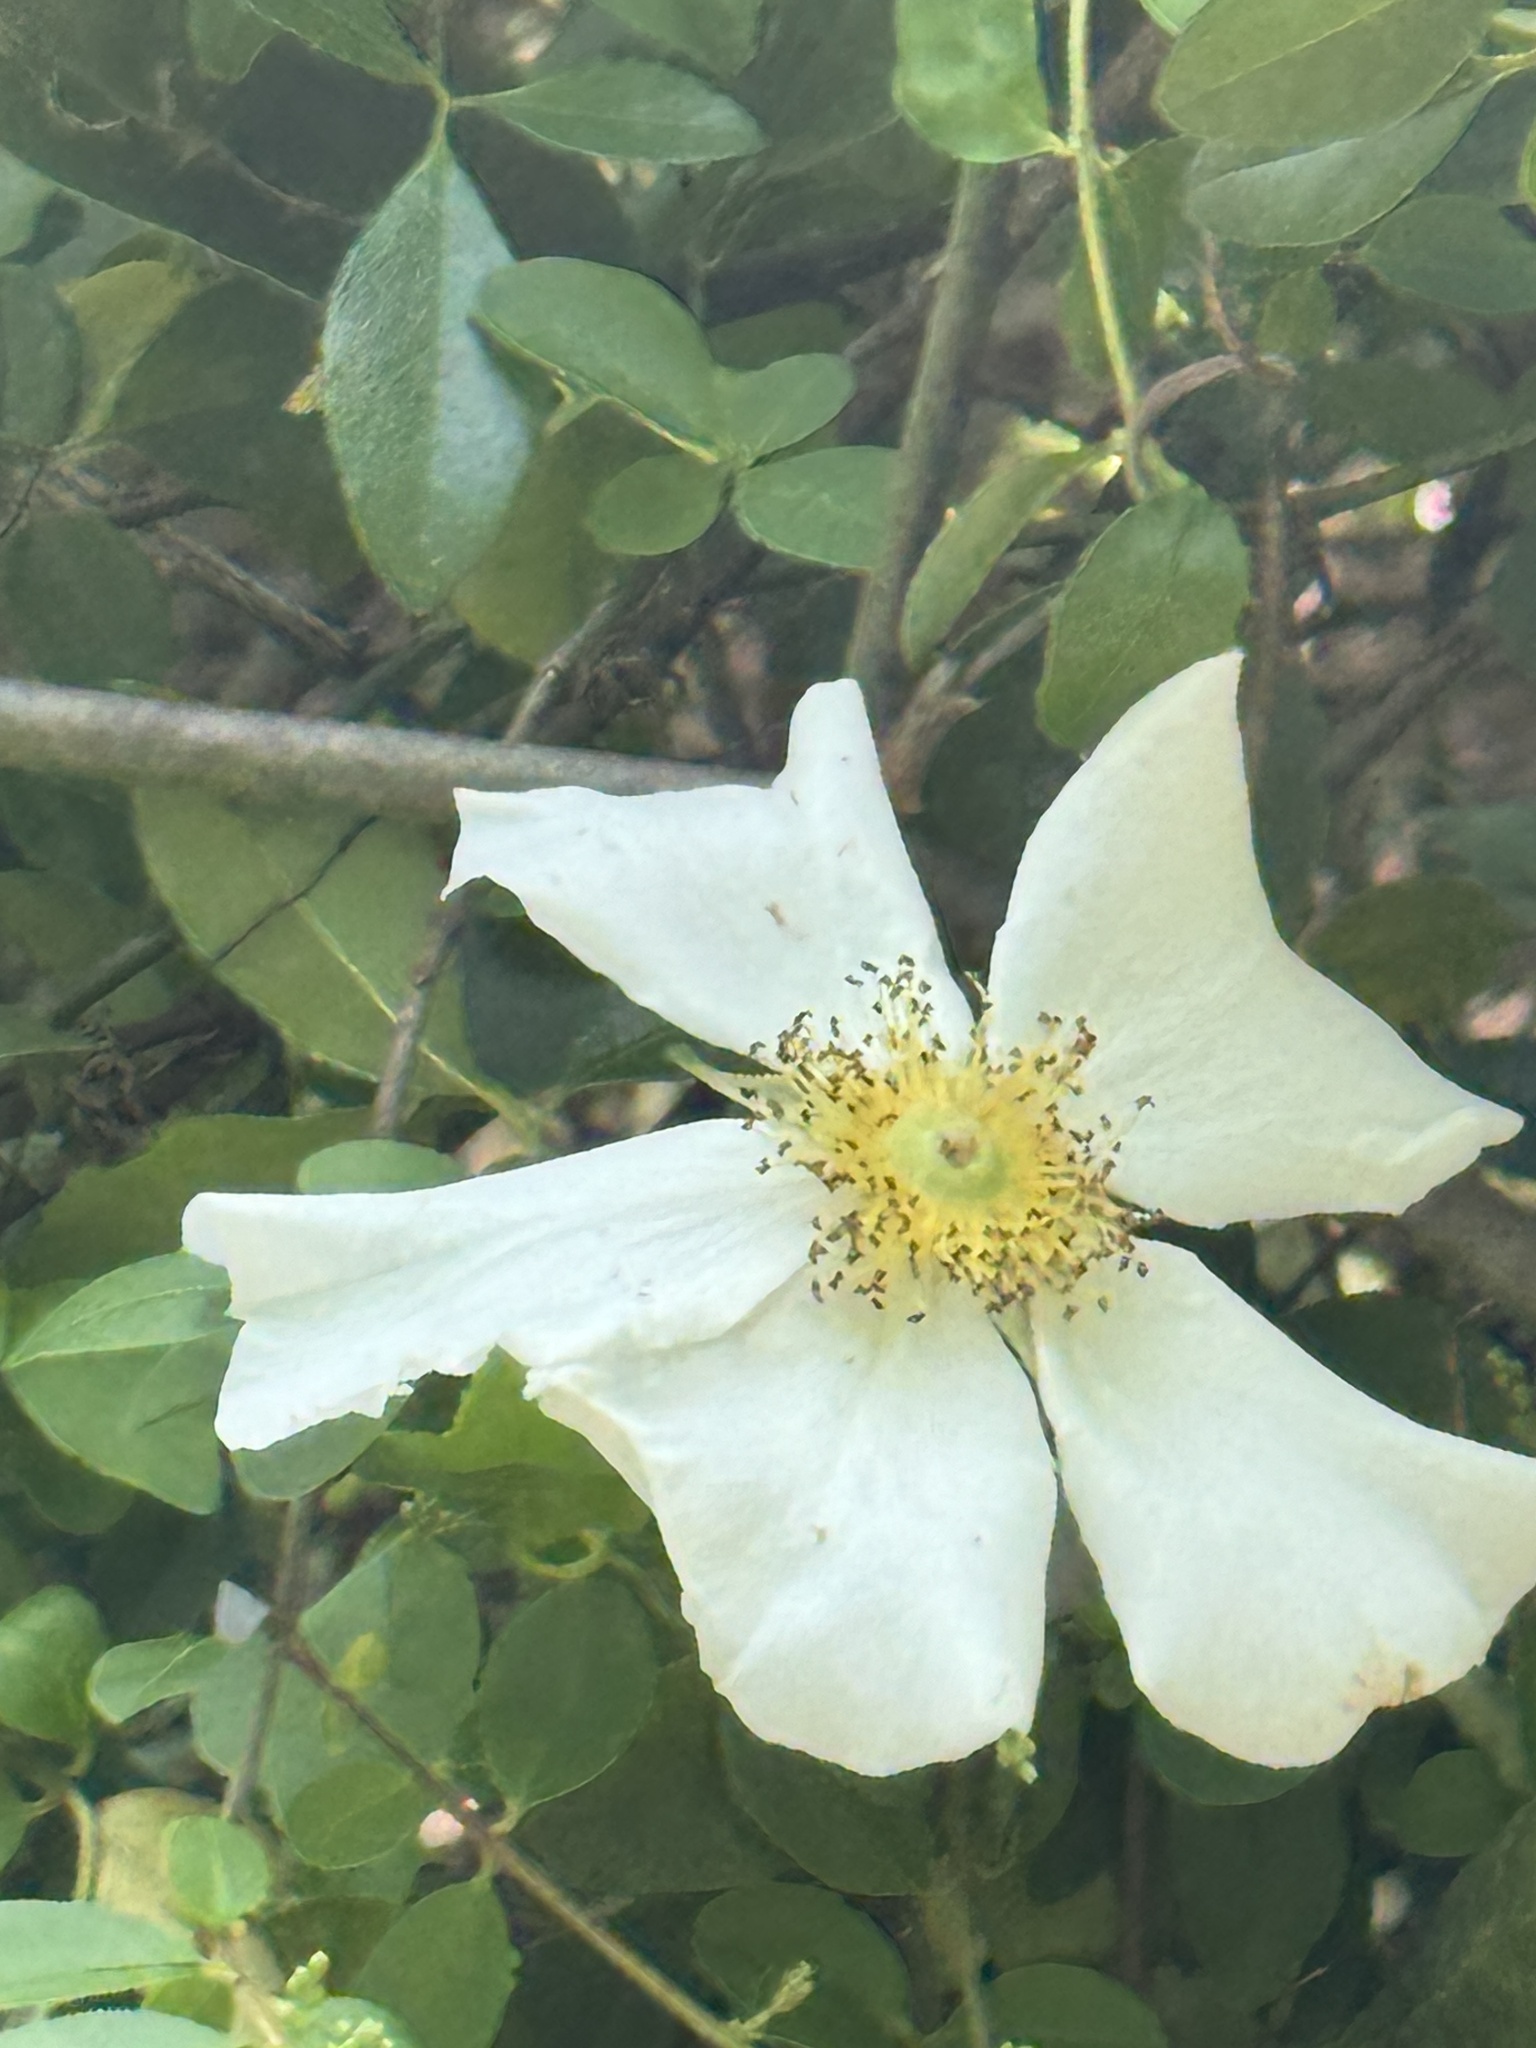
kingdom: Plantae
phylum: Tracheophyta
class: Magnoliopsida
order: Rosales
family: Rosaceae
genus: Rosa
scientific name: Rosa laevigata
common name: Cherokee rose
